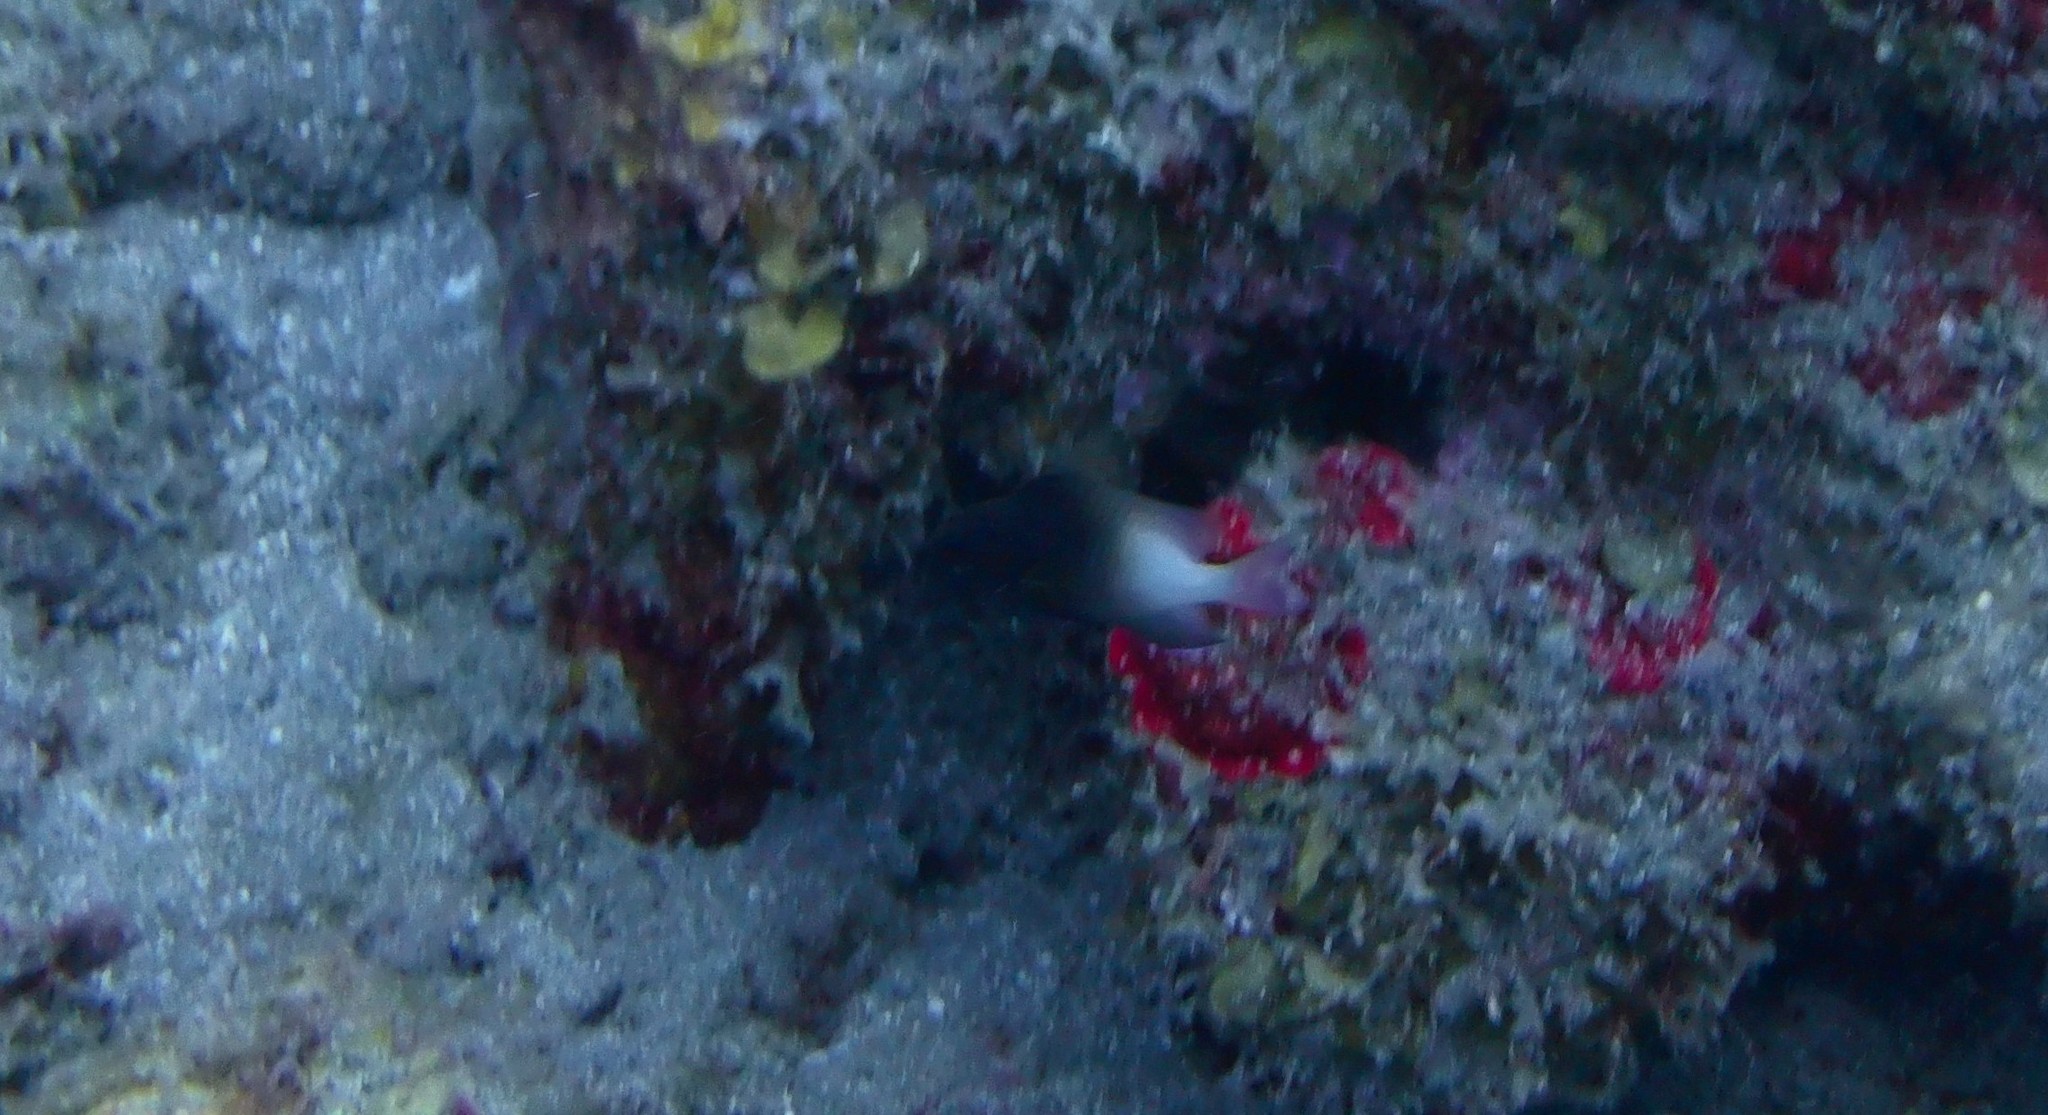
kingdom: Animalia
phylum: Chordata
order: Perciformes
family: Pomacentridae
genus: Stegastes
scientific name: Stegastes partitus
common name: Bicolor damselfish
